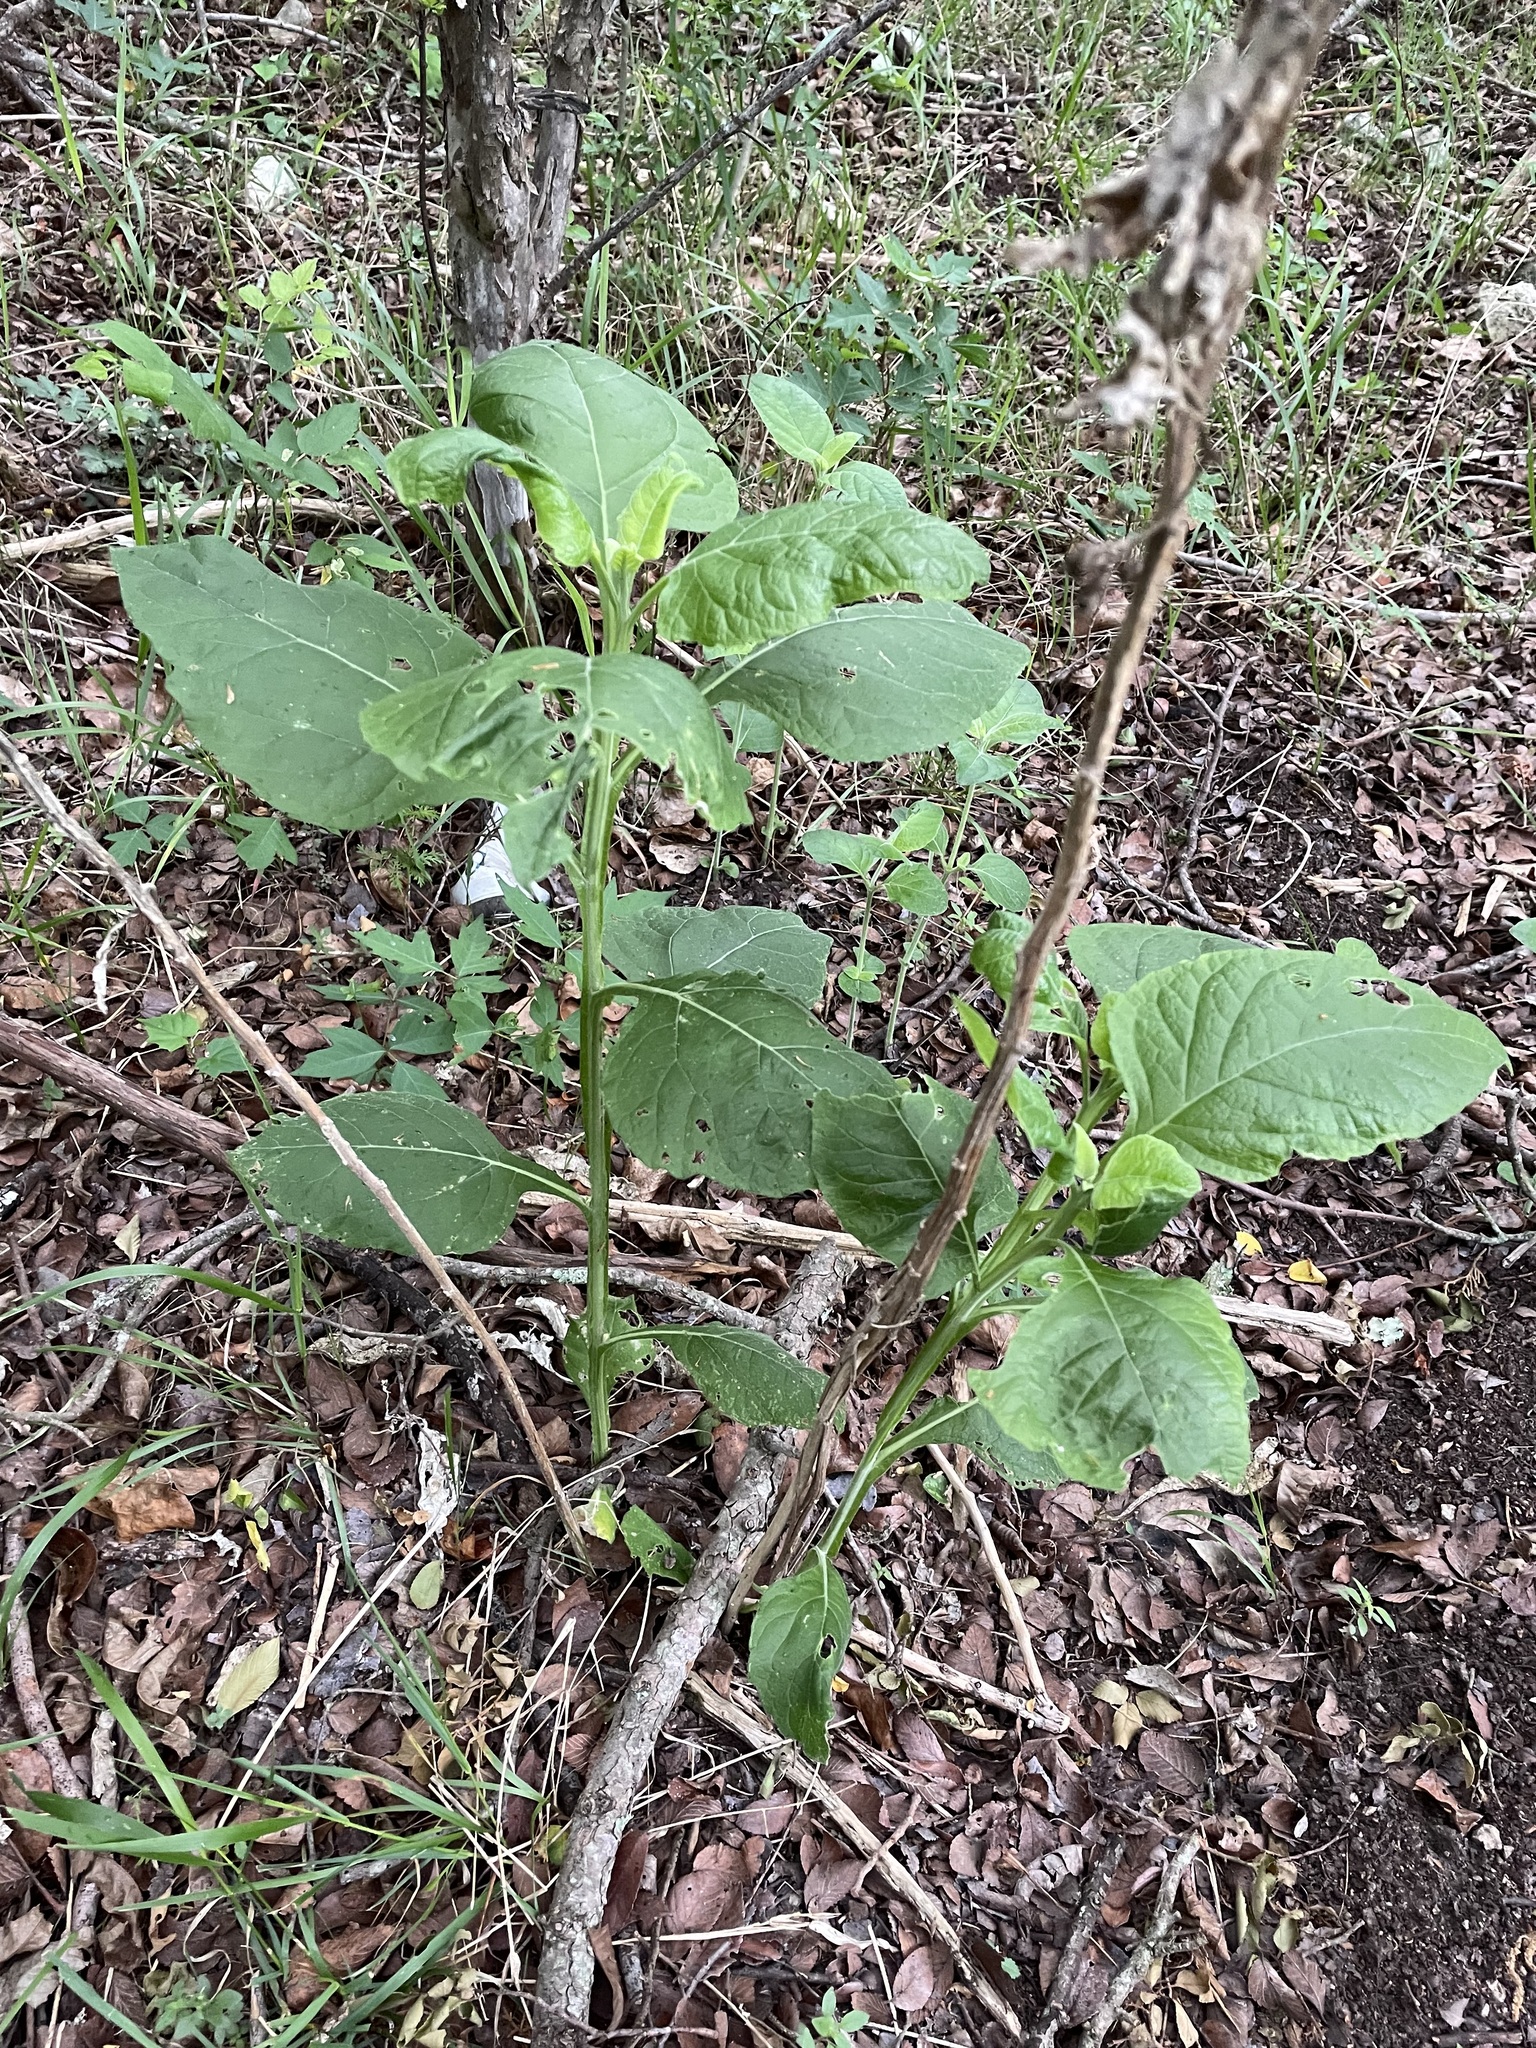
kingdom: Plantae
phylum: Tracheophyta
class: Magnoliopsida
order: Asterales
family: Asteraceae
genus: Verbesina
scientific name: Verbesina virginica
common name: Frostweed
